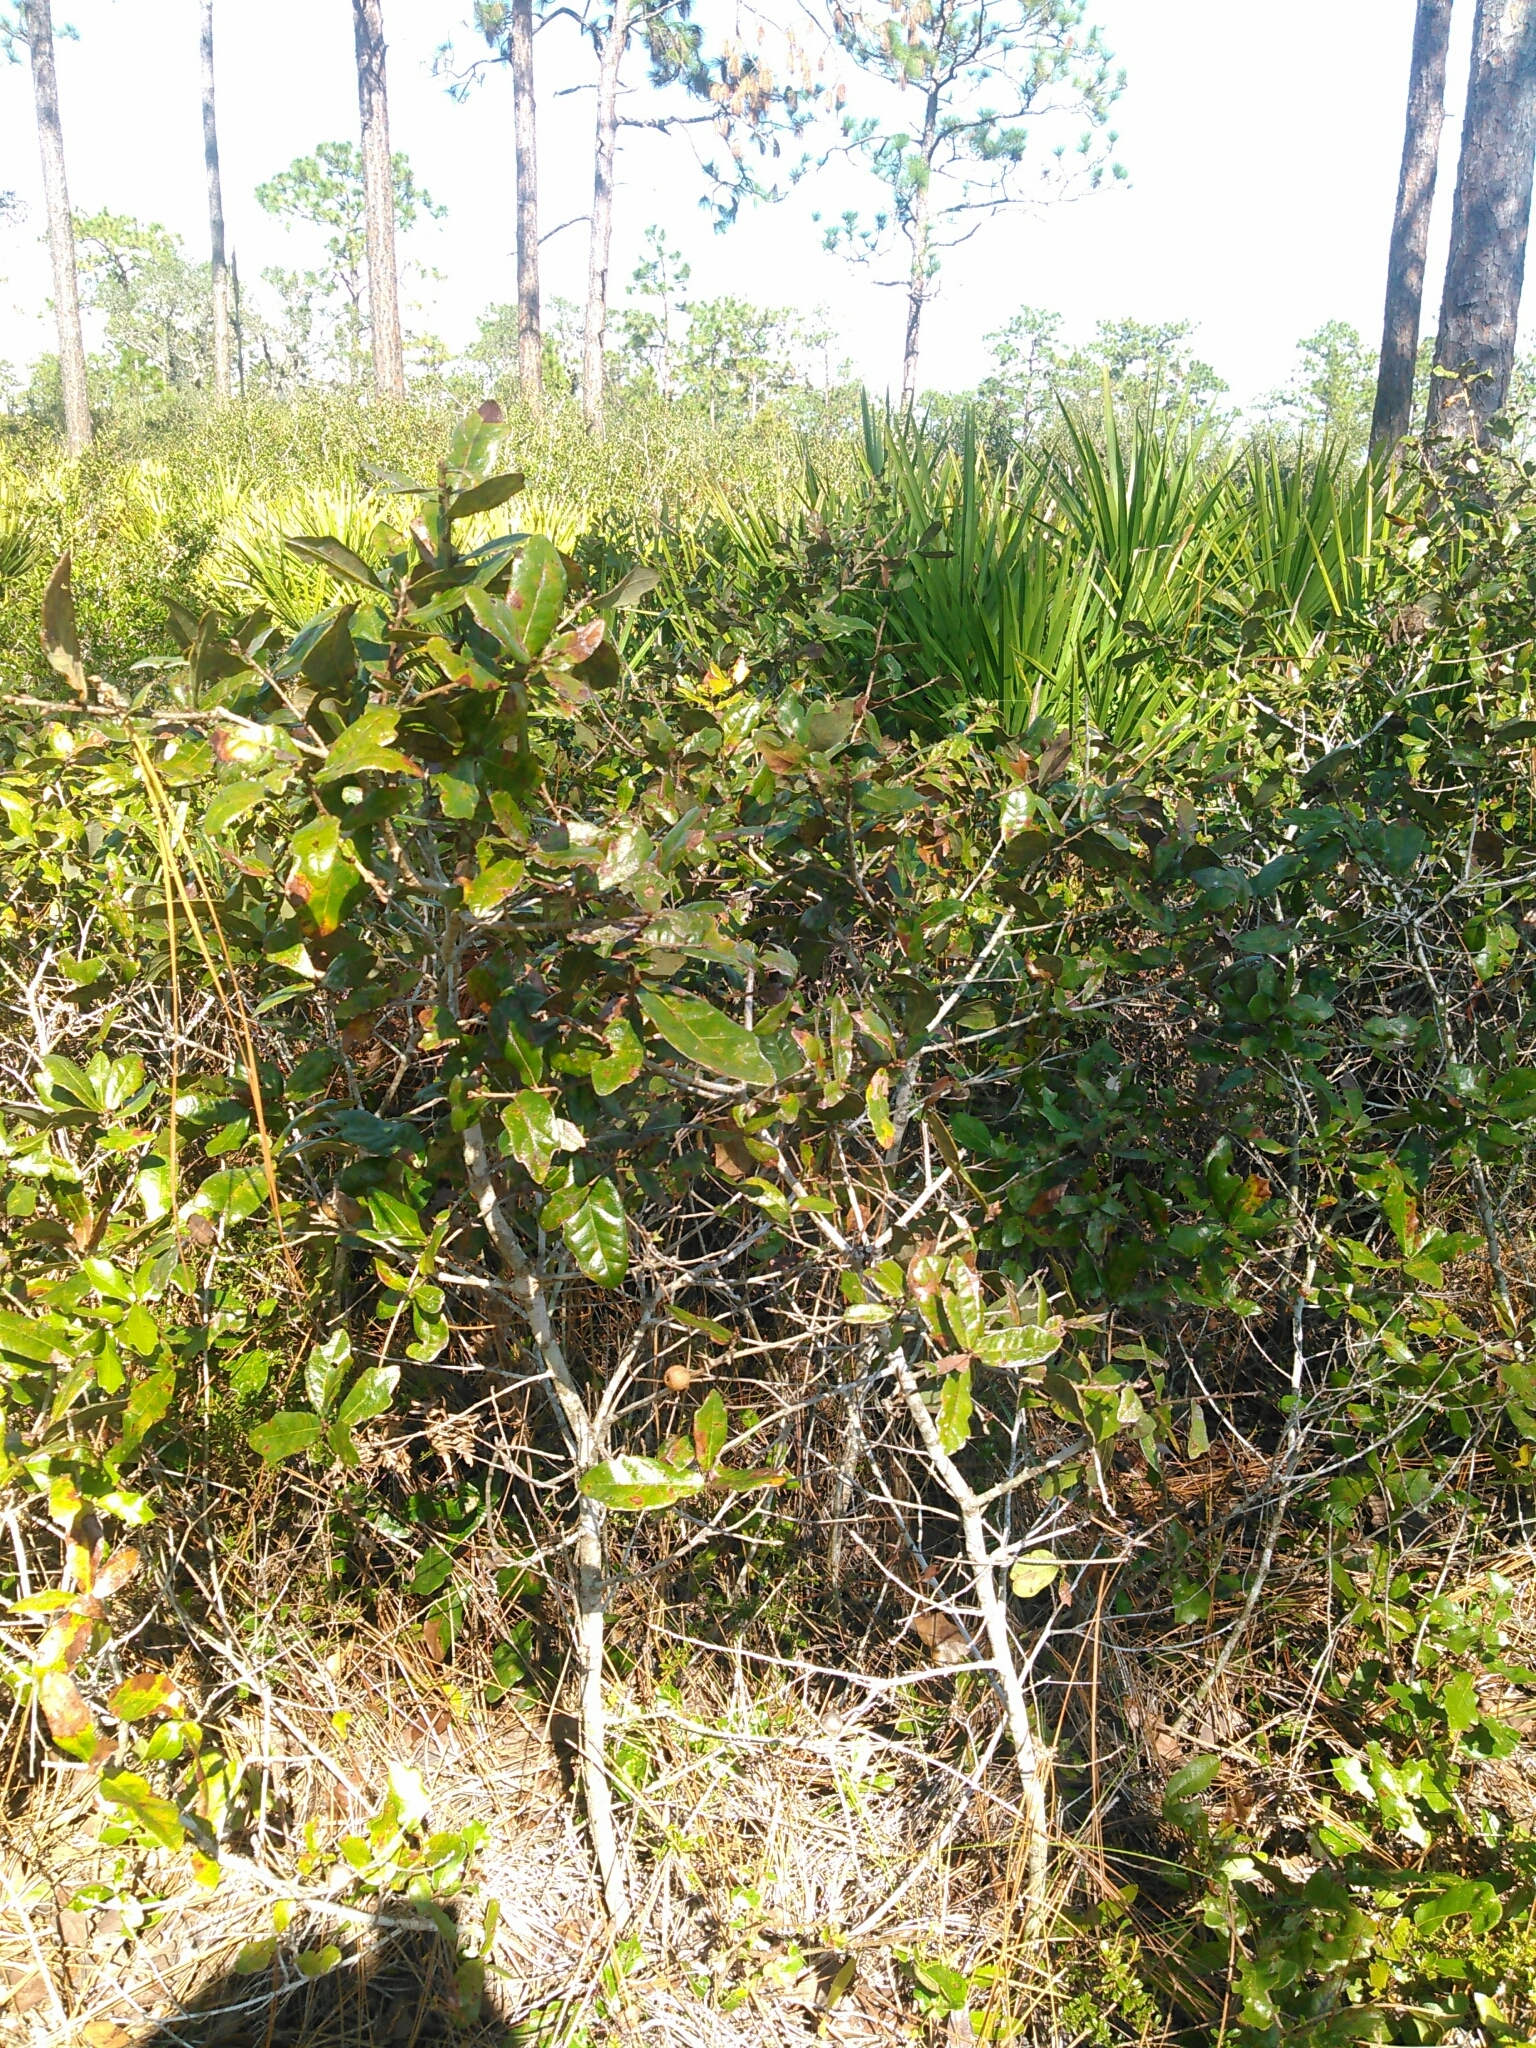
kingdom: Plantae
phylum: Tracheophyta
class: Magnoliopsida
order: Fagales
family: Fagaceae
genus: Quercus
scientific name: Quercus chapmanii
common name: Chapman oak
